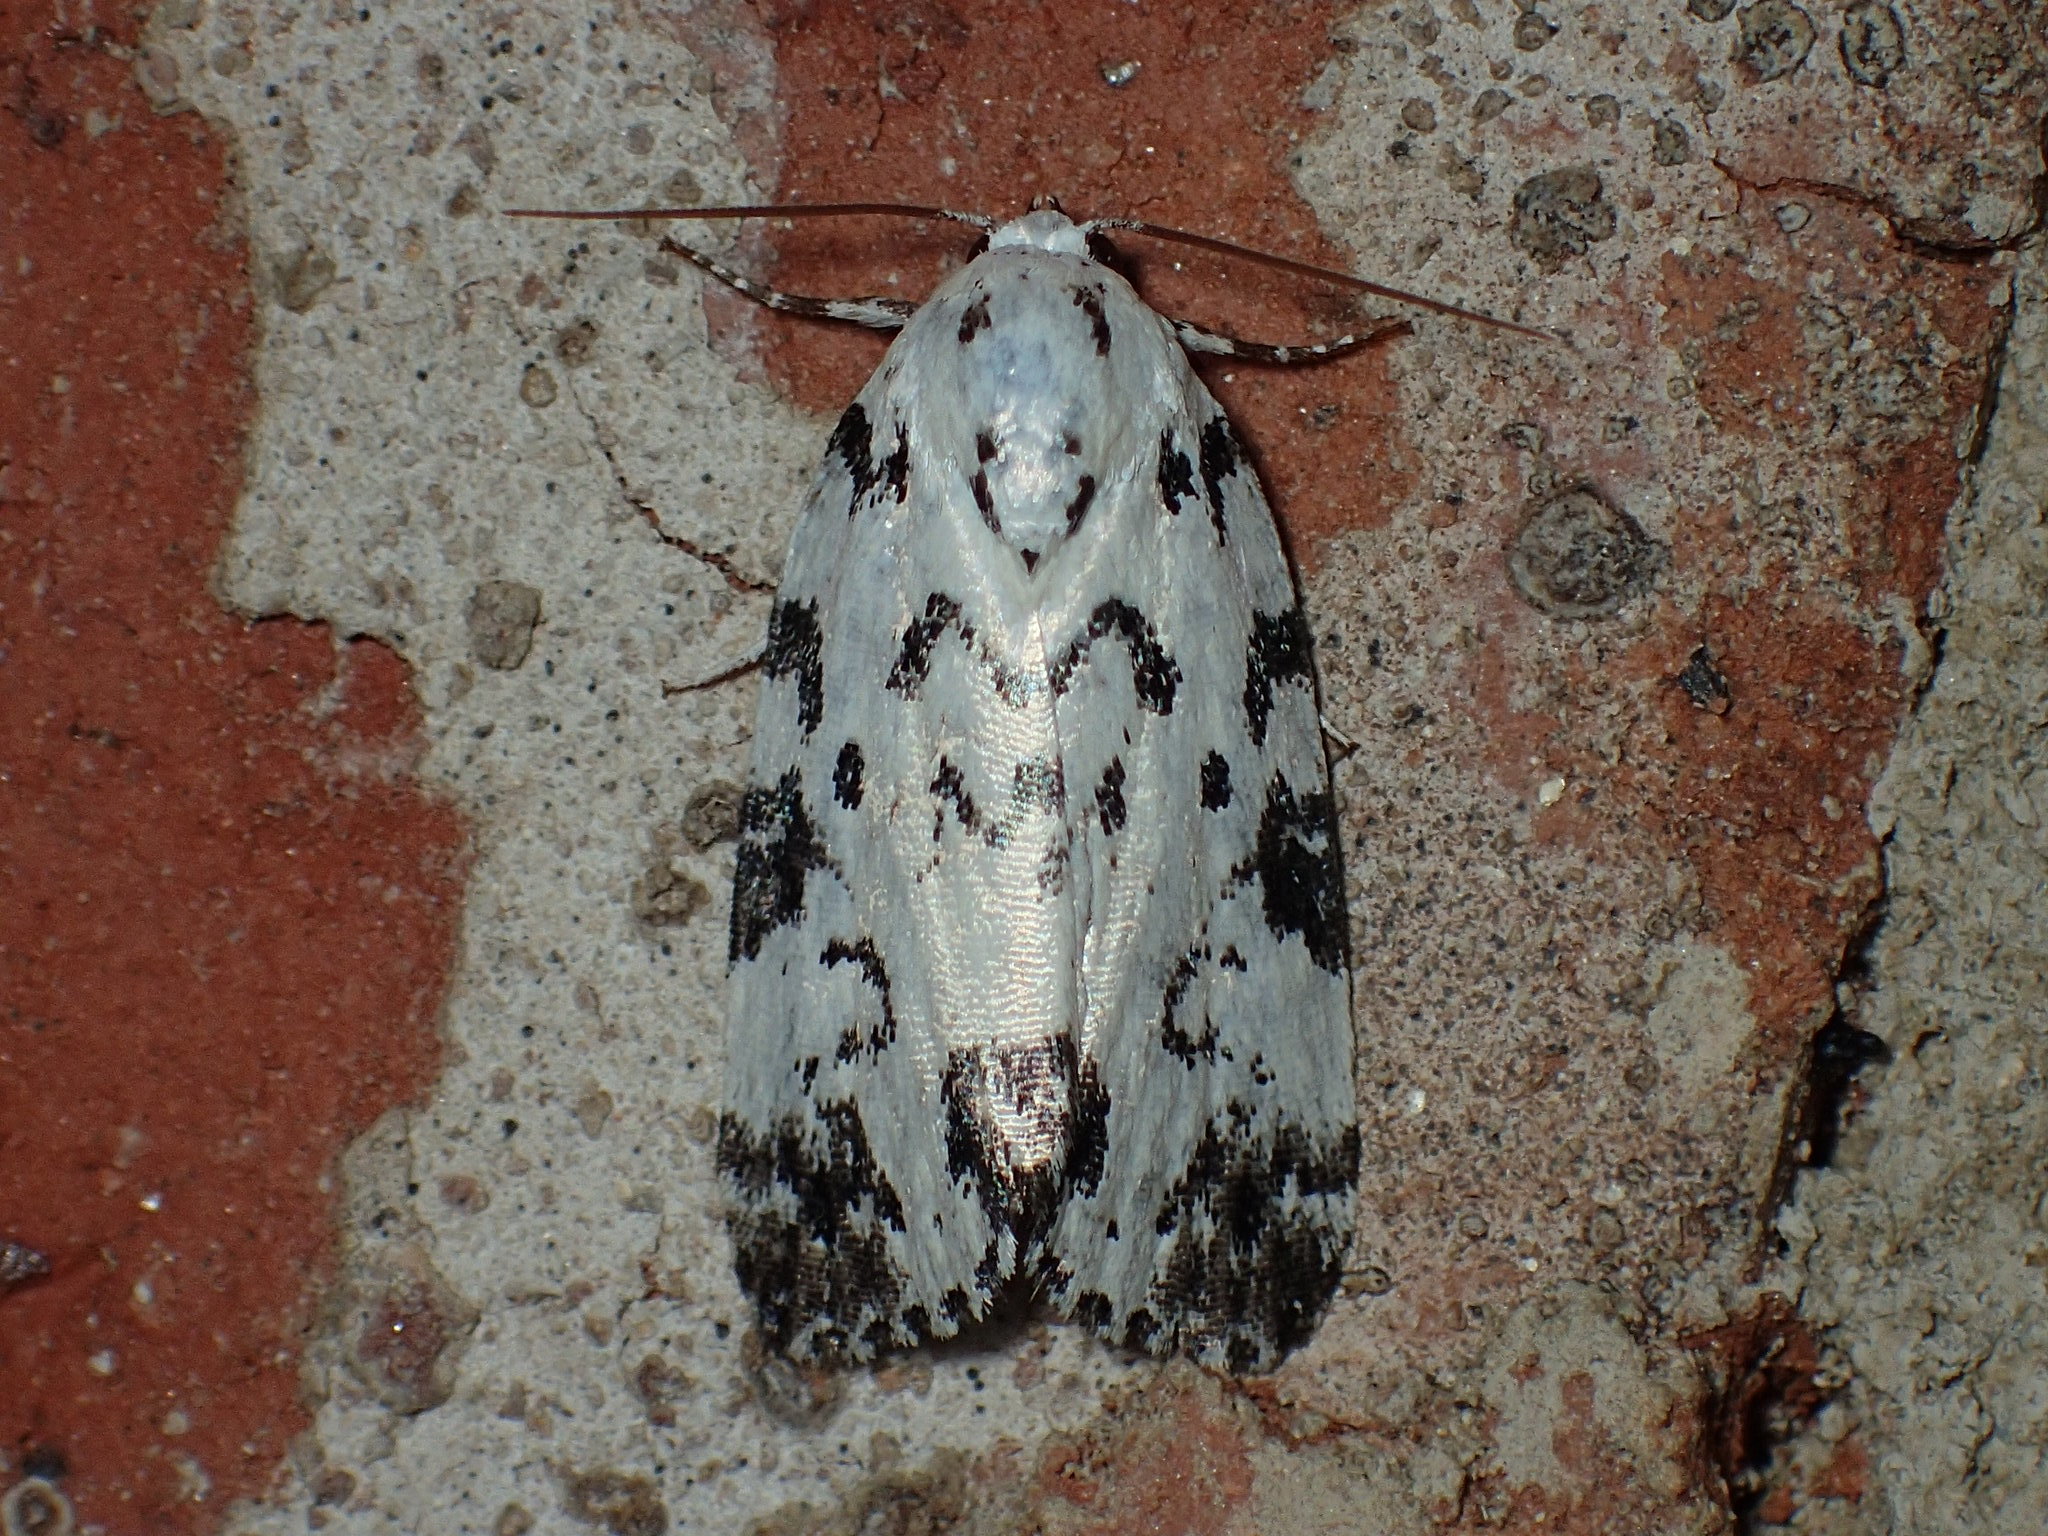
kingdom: Animalia
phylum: Arthropoda
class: Insecta
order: Lepidoptera
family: Noctuidae
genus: Polygrammate
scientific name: Polygrammate hebraeicum
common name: Hebrew moth
